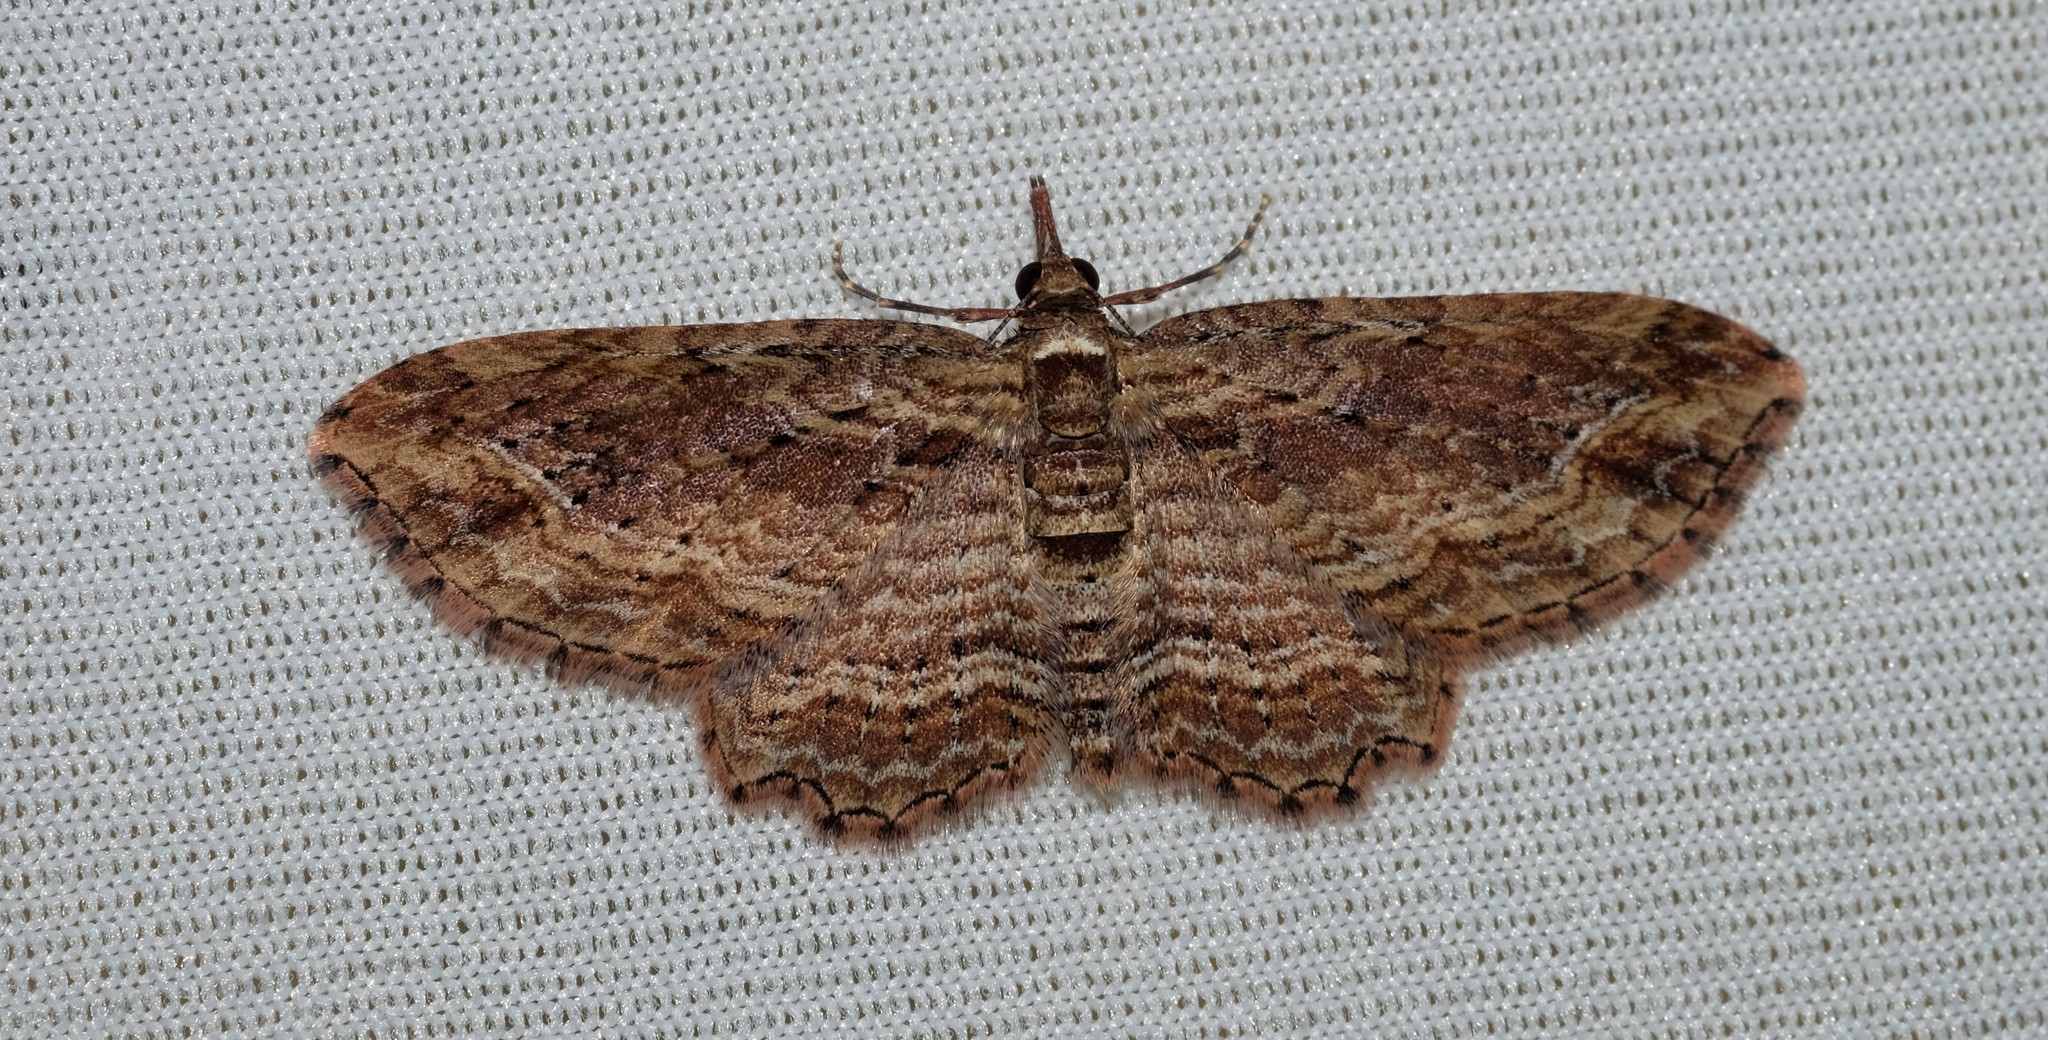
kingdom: Animalia
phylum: Arthropoda
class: Insecta
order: Lepidoptera
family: Geometridae
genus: Chloroclystis
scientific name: Chloroclystis filata
